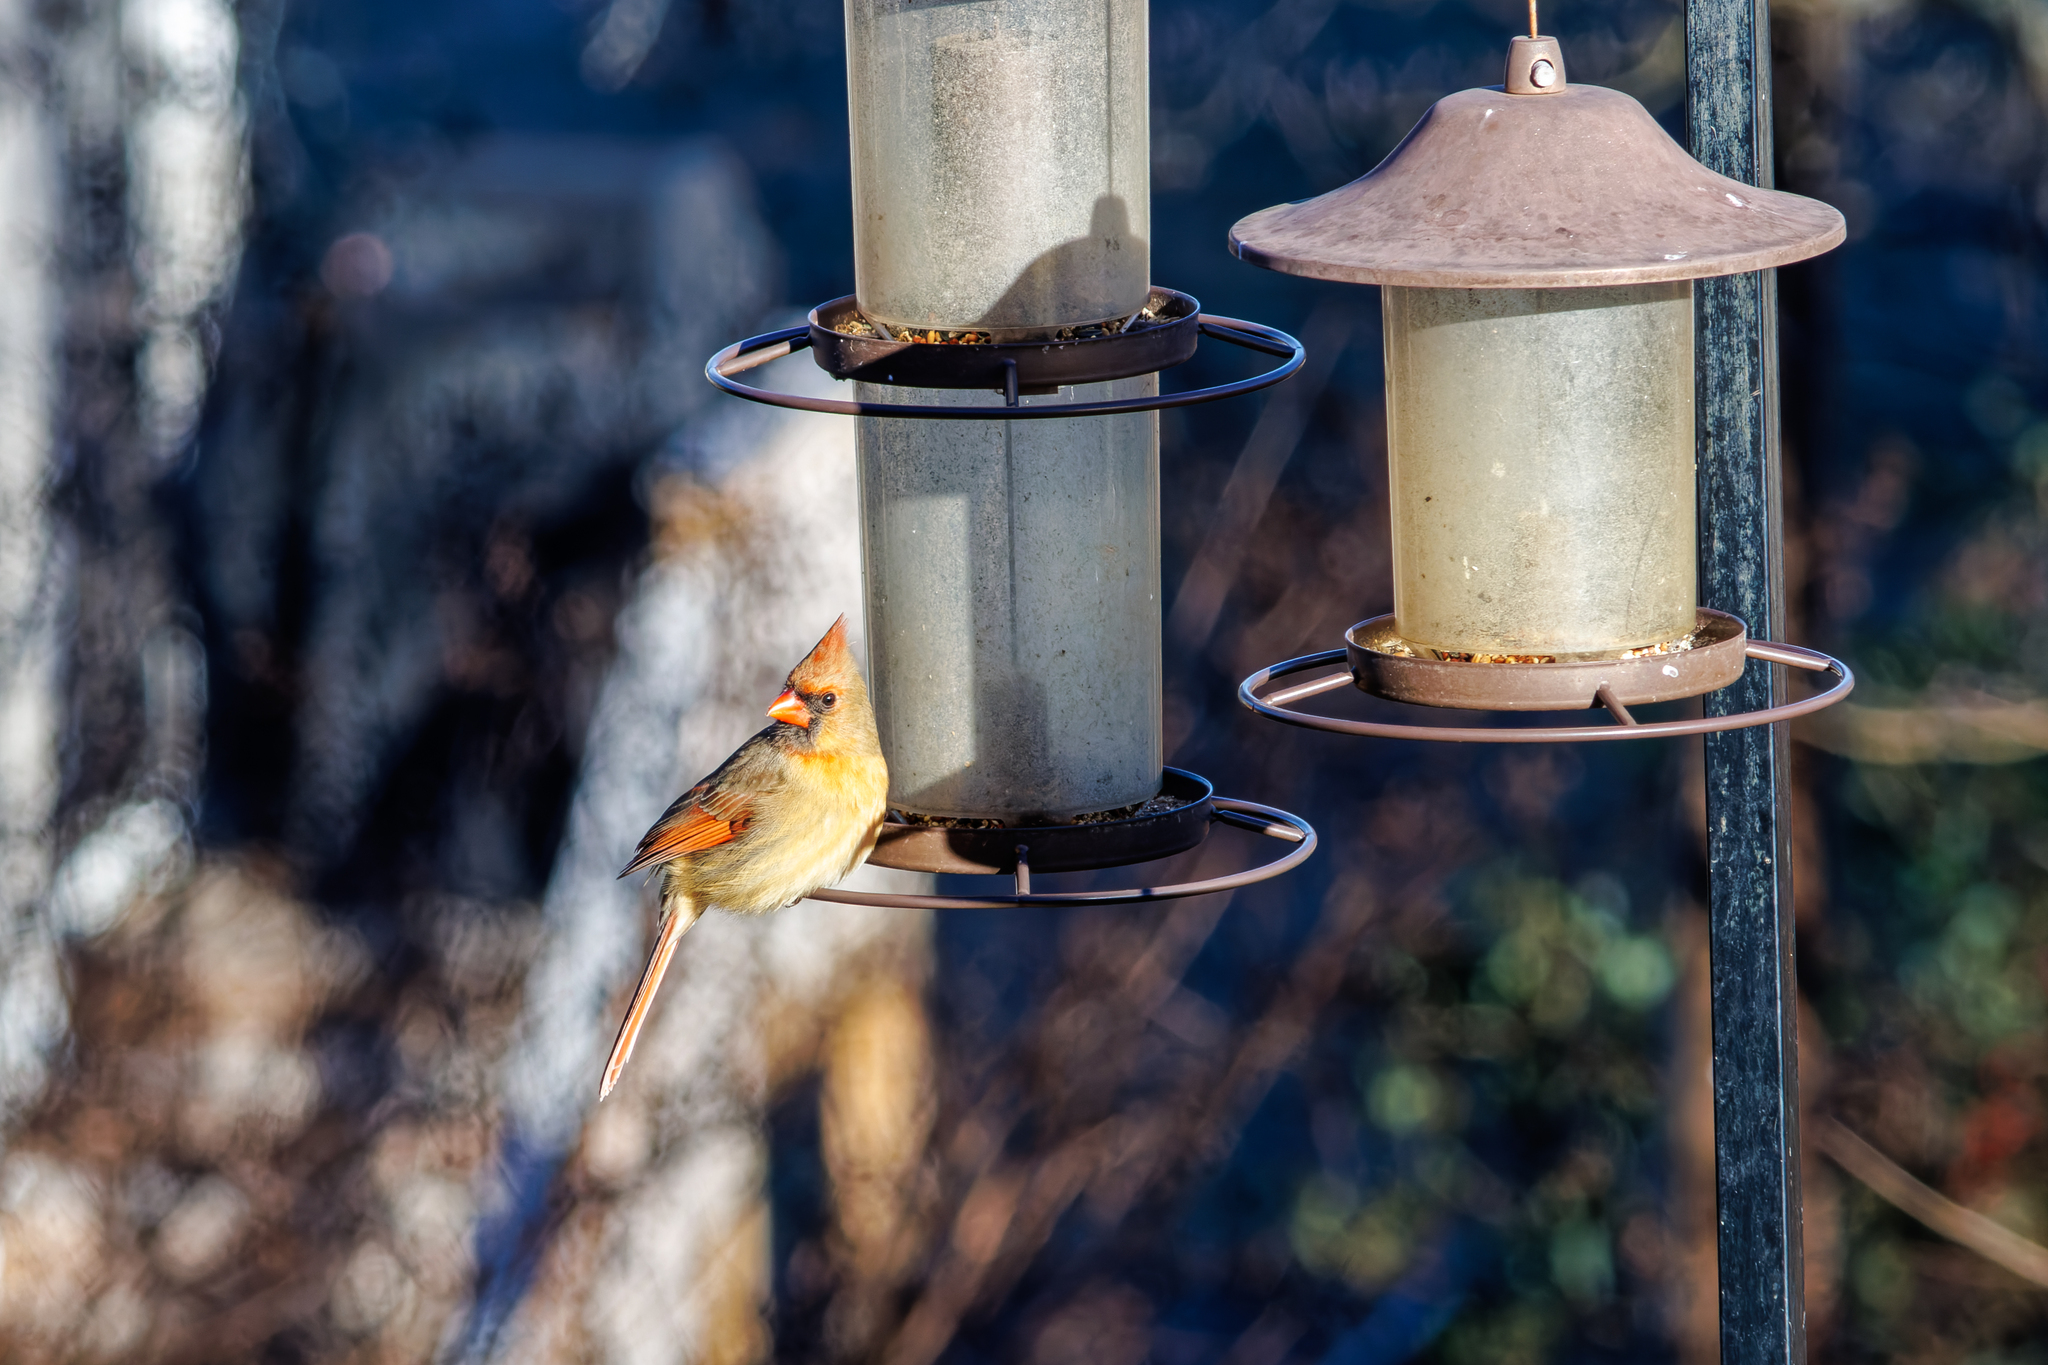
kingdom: Animalia
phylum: Chordata
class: Aves
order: Passeriformes
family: Cardinalidae
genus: Cardinalis
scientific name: Cardinalis cardinalis
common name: Northern cardinal
